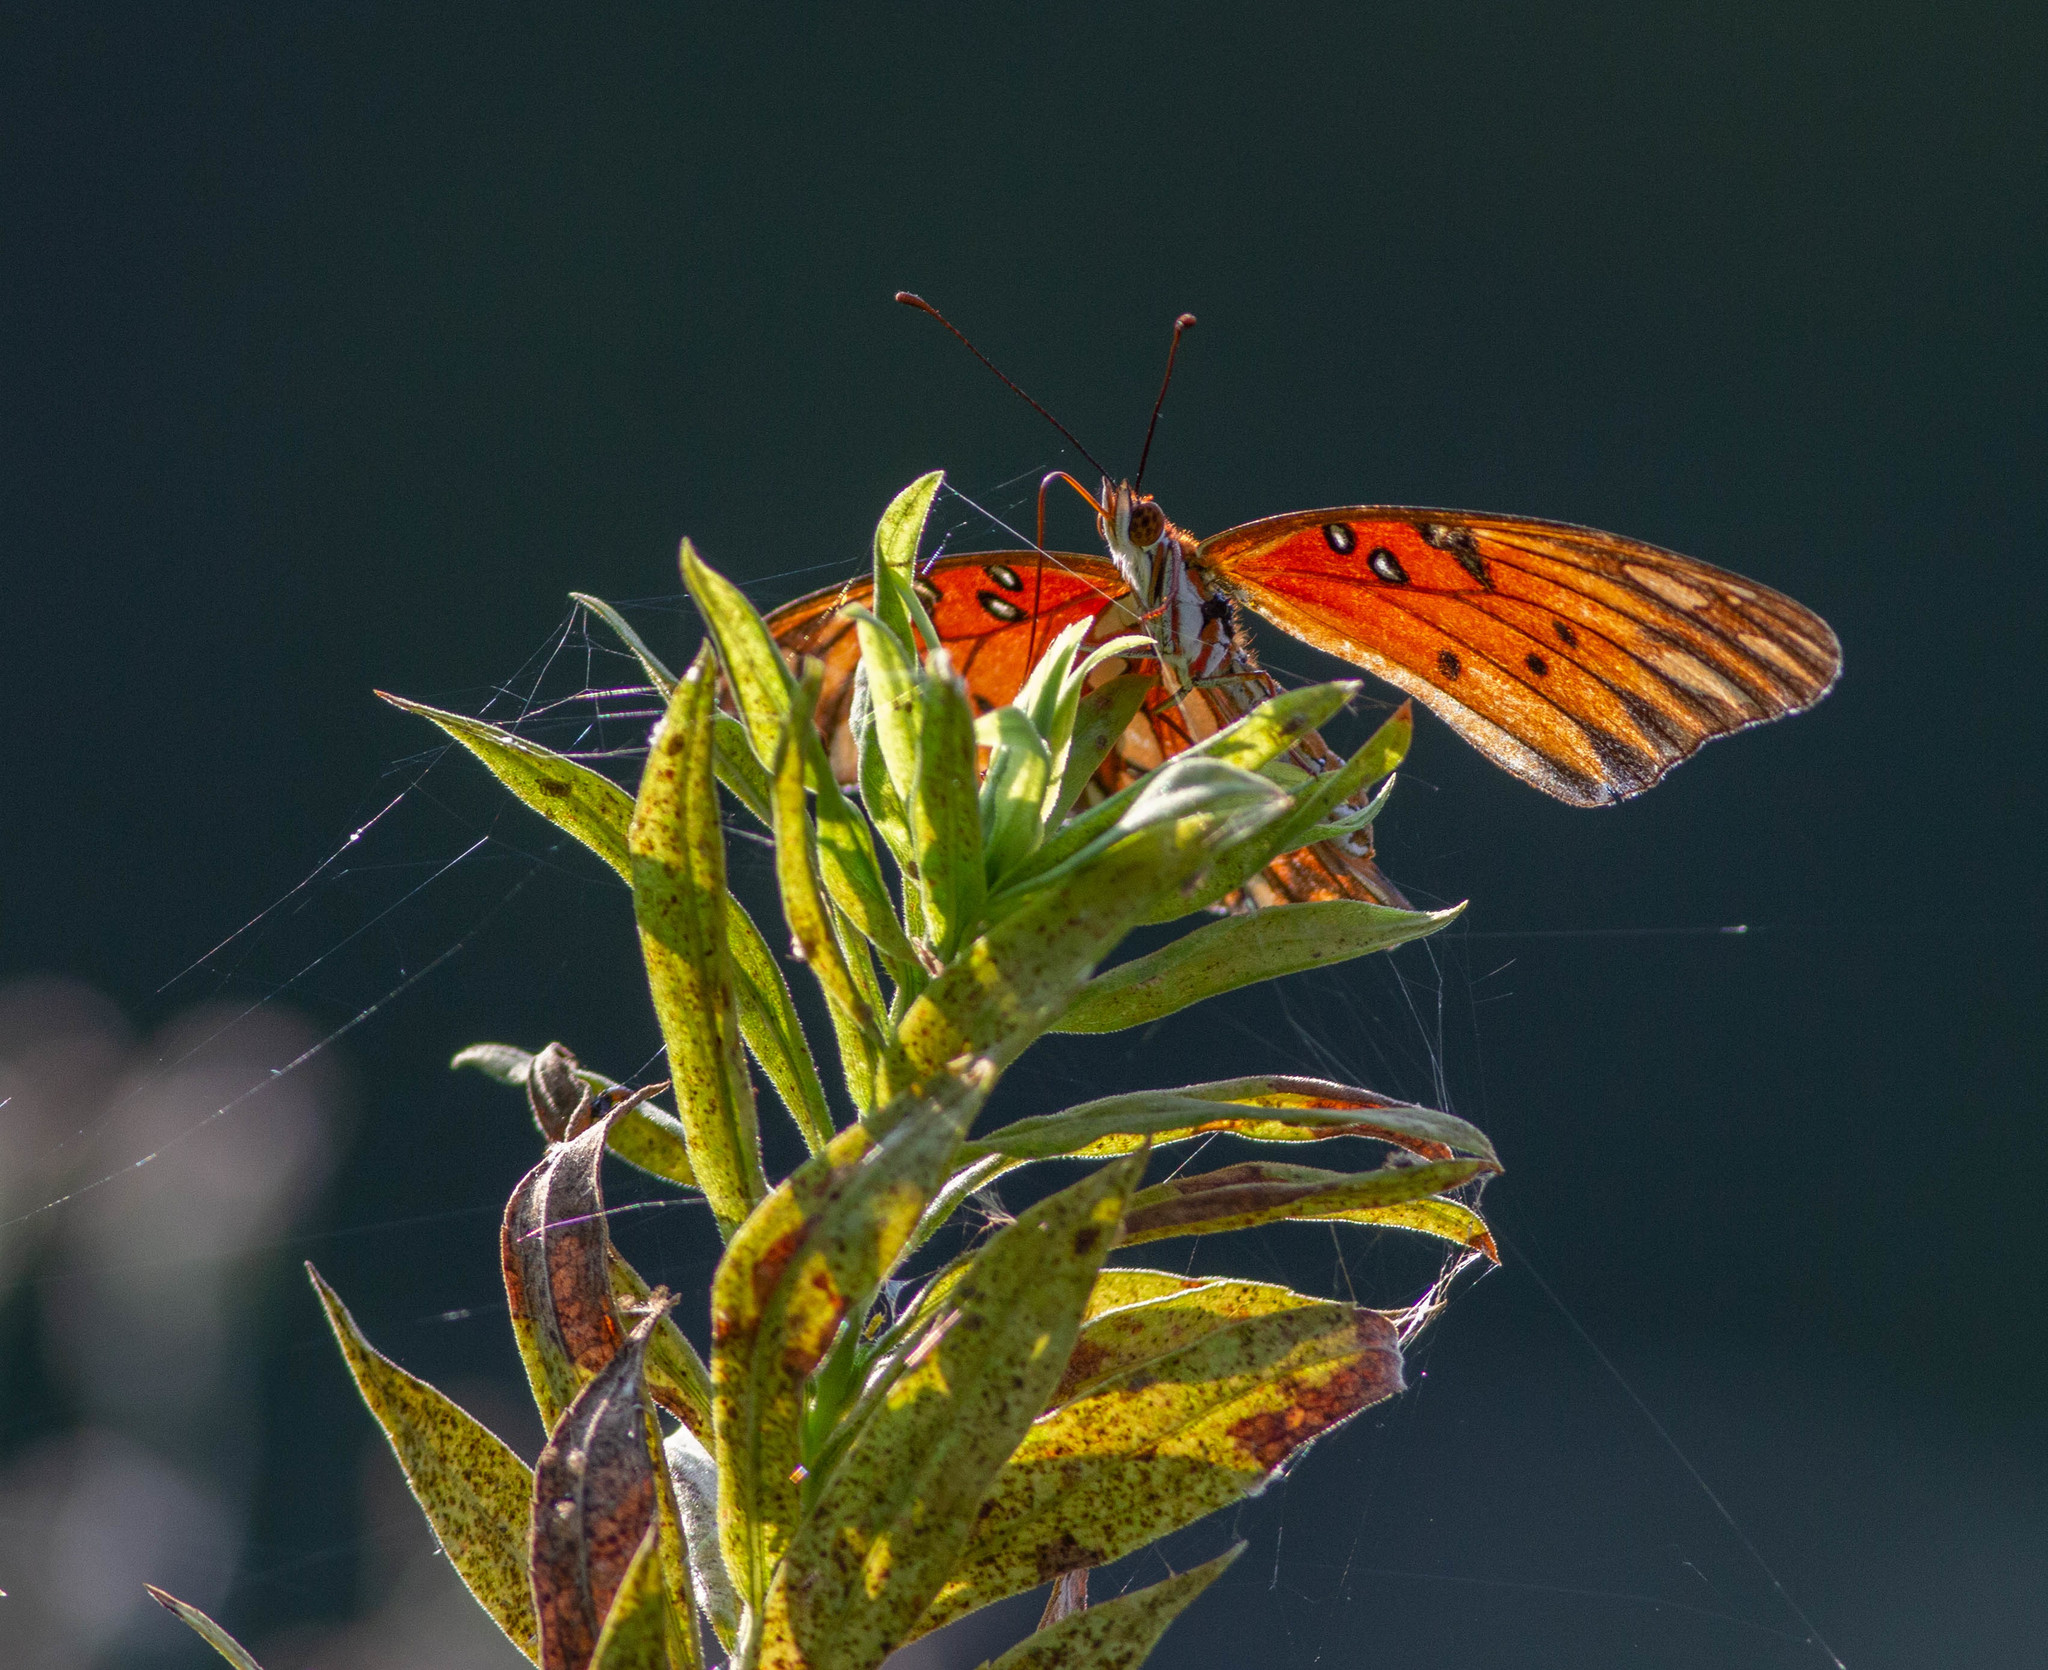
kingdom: Animalia
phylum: Arthropoda
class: Insecta
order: Lepidoptera
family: Nymphalidae
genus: Dione
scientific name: Dione vanillae
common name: Gulf fritillary
